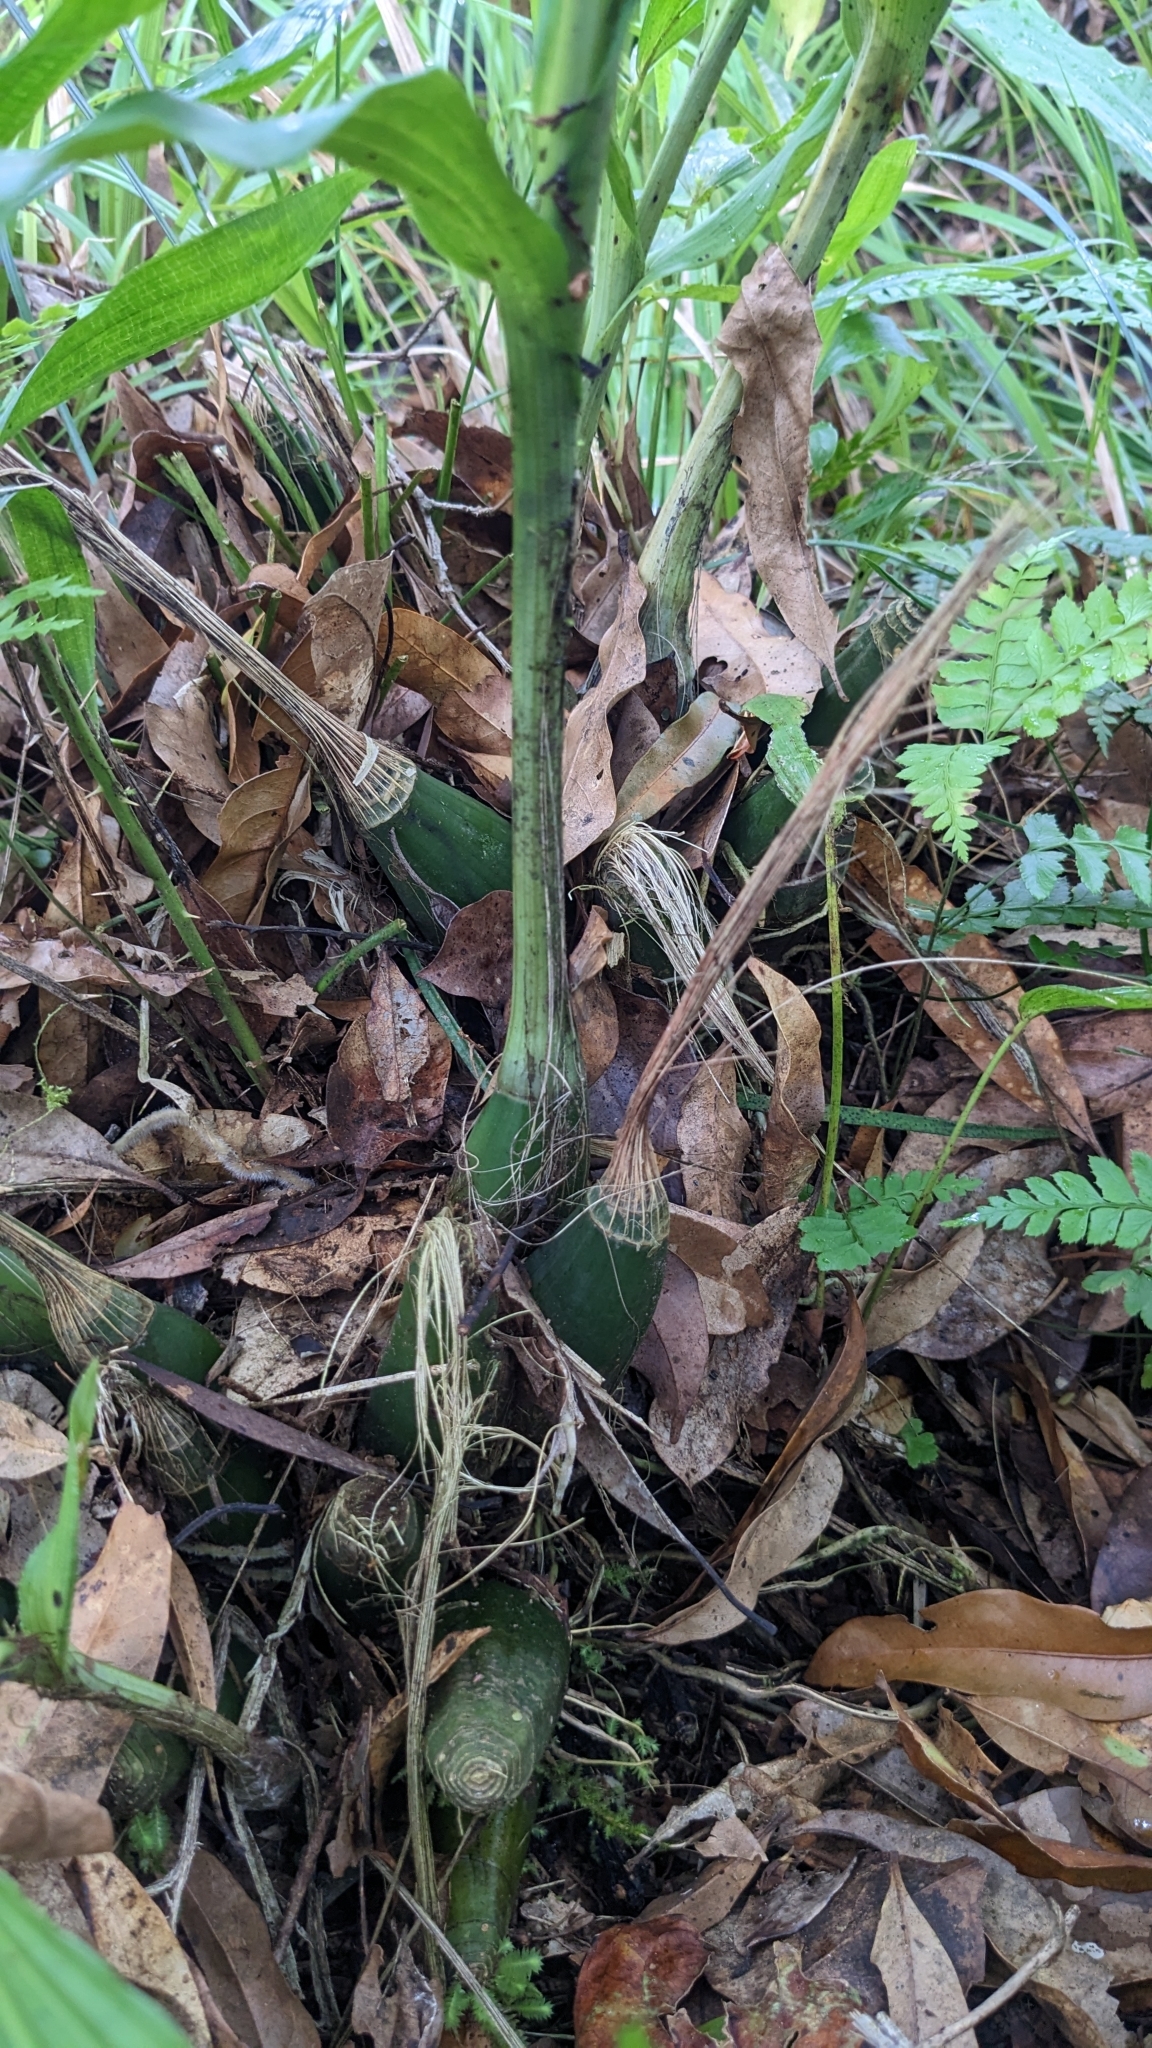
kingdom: Plantae
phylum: Tracheophyta
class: Liliopsida
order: Asparagales
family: Orchidaceae
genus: Calanthe
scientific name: Calanthe woodfordii
